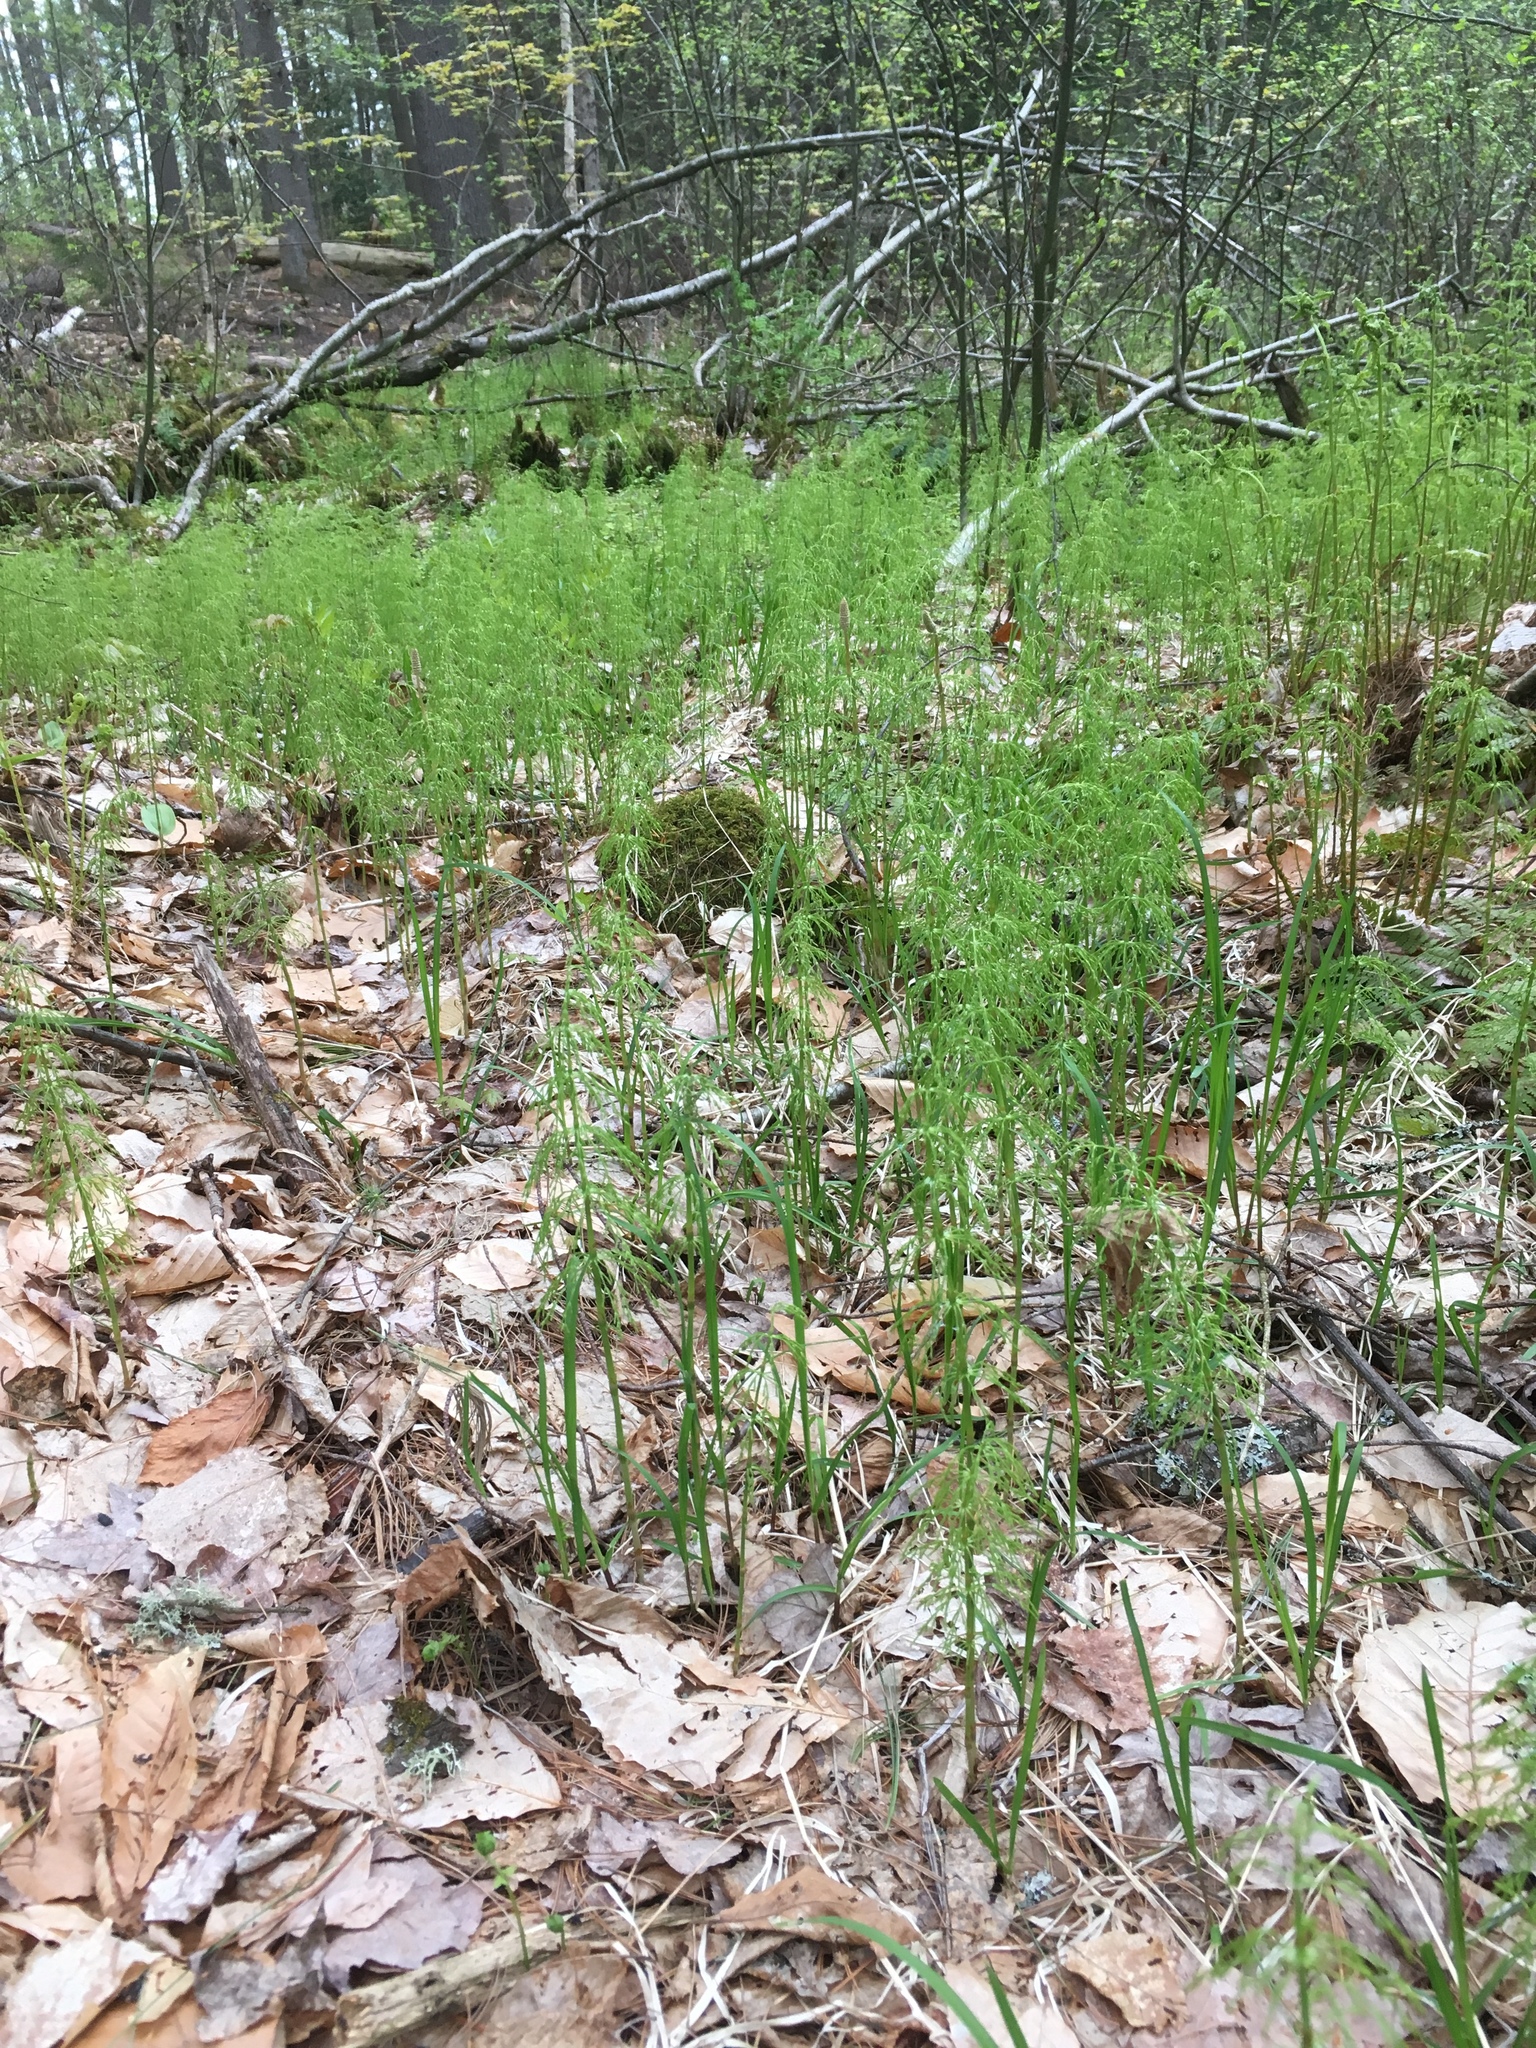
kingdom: Plantae
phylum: Tracheophyta
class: Polypodiopsida
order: Equisetales
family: Equisetaceae
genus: Equisetum
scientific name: Equisetum sylvaticum
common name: Wood horsetail
